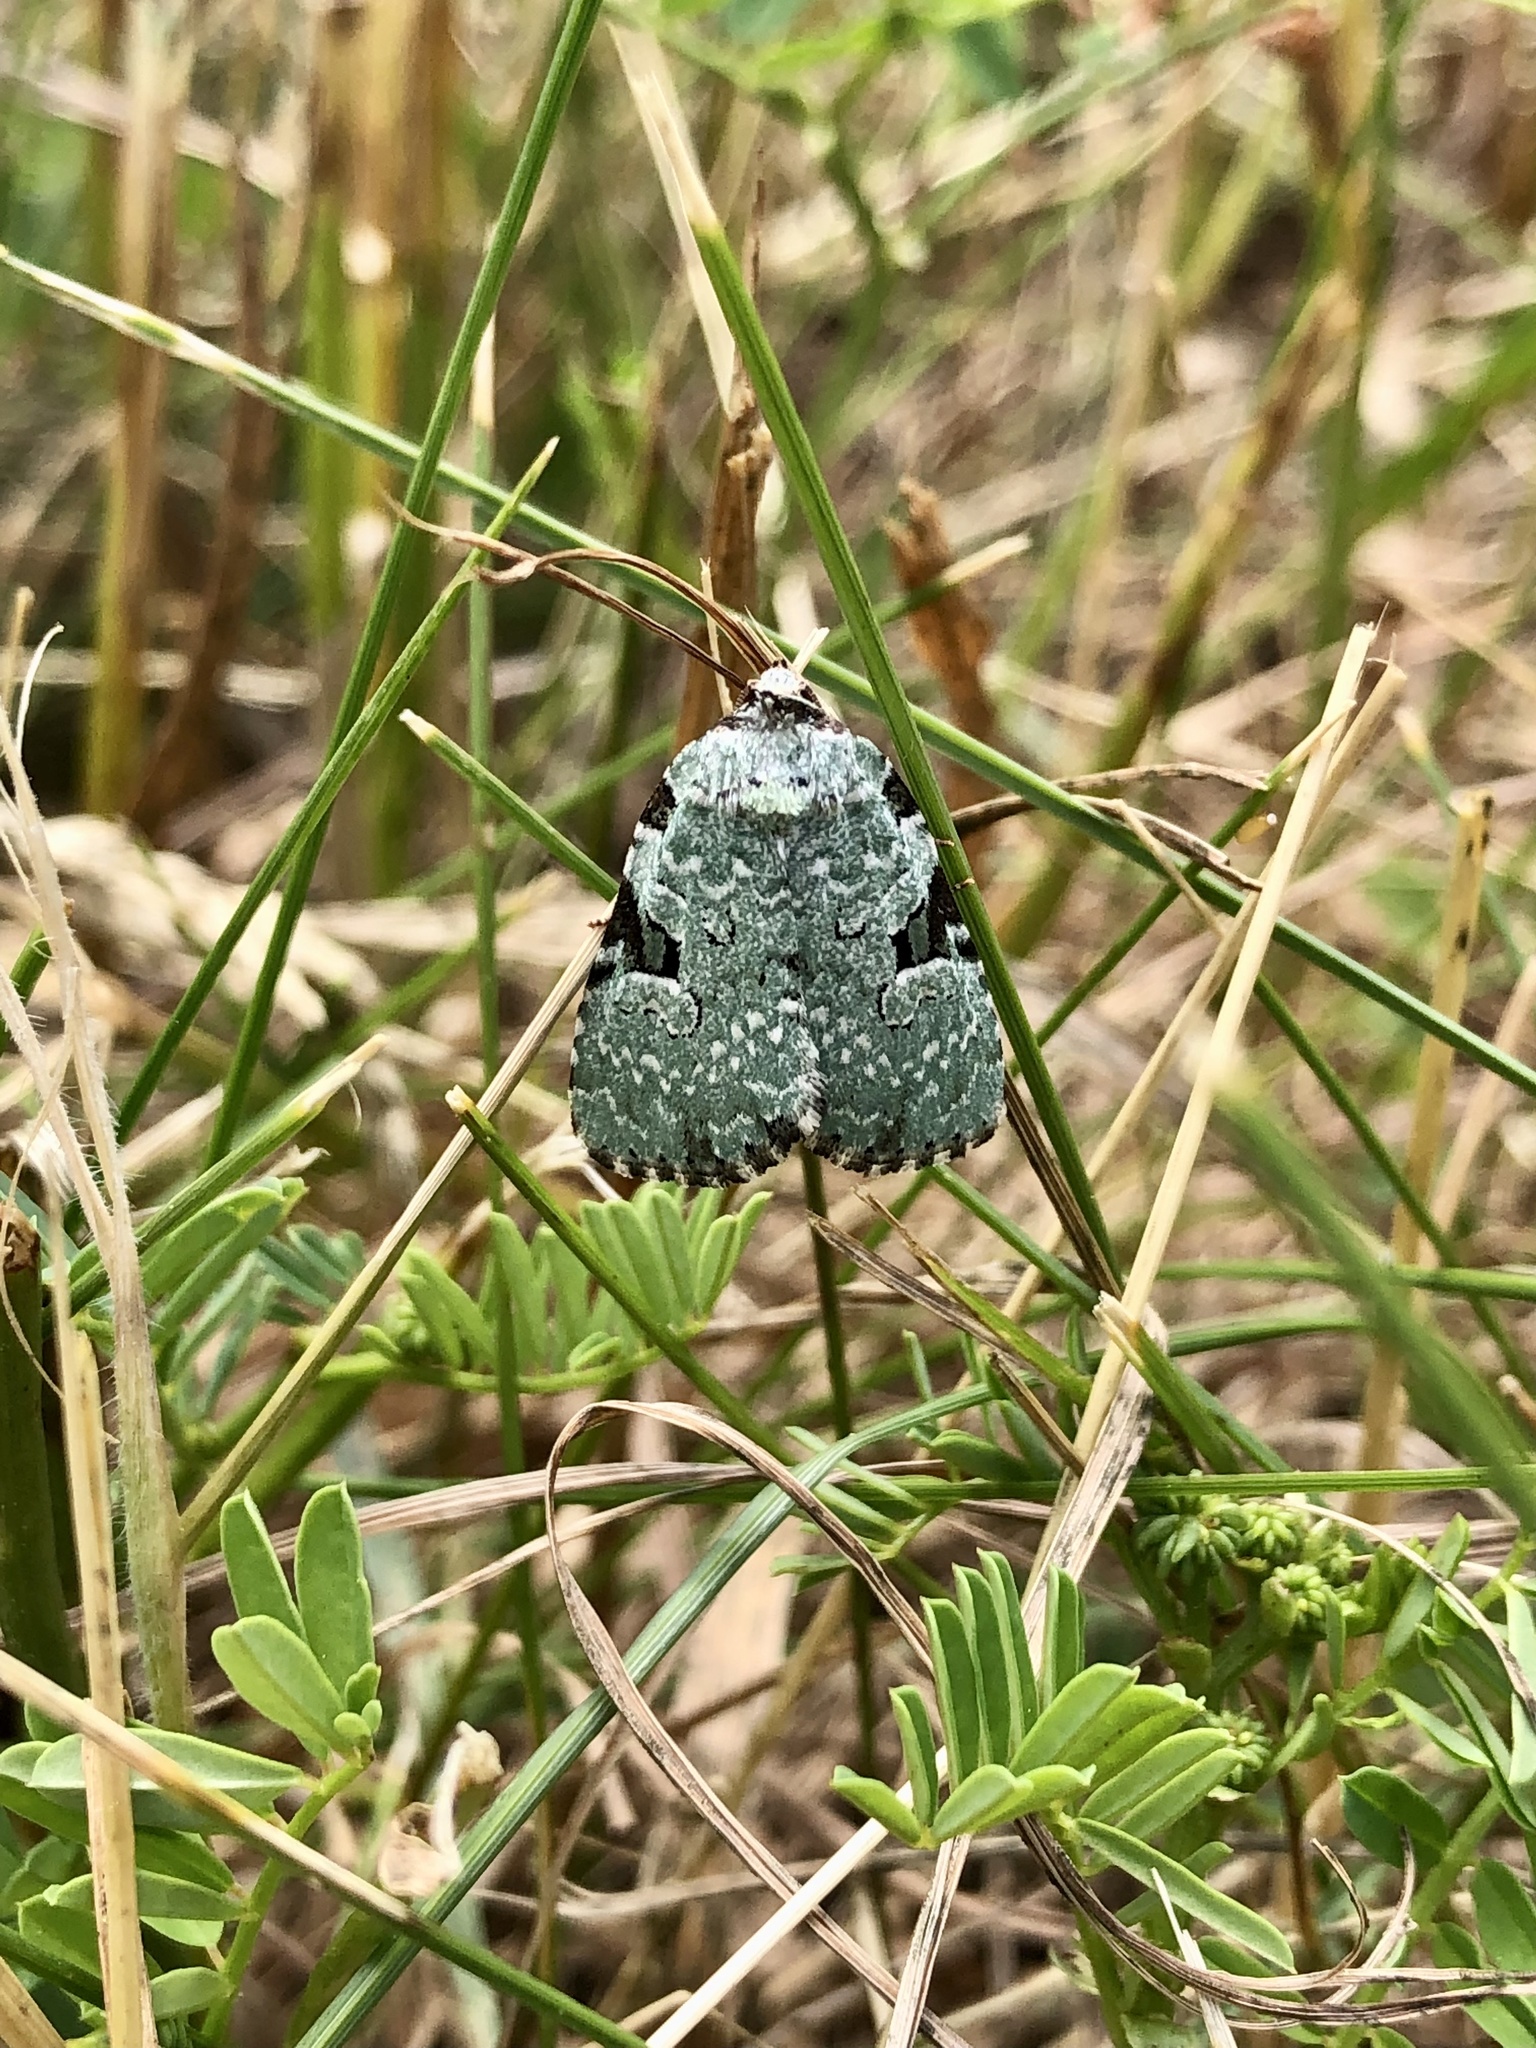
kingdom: Animalia
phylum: Arthropoda
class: Insecta
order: Lepidoptera
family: Noctuidae
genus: Leuconycta
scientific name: Leuconycta diphteroides
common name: Green leuconycta moth
